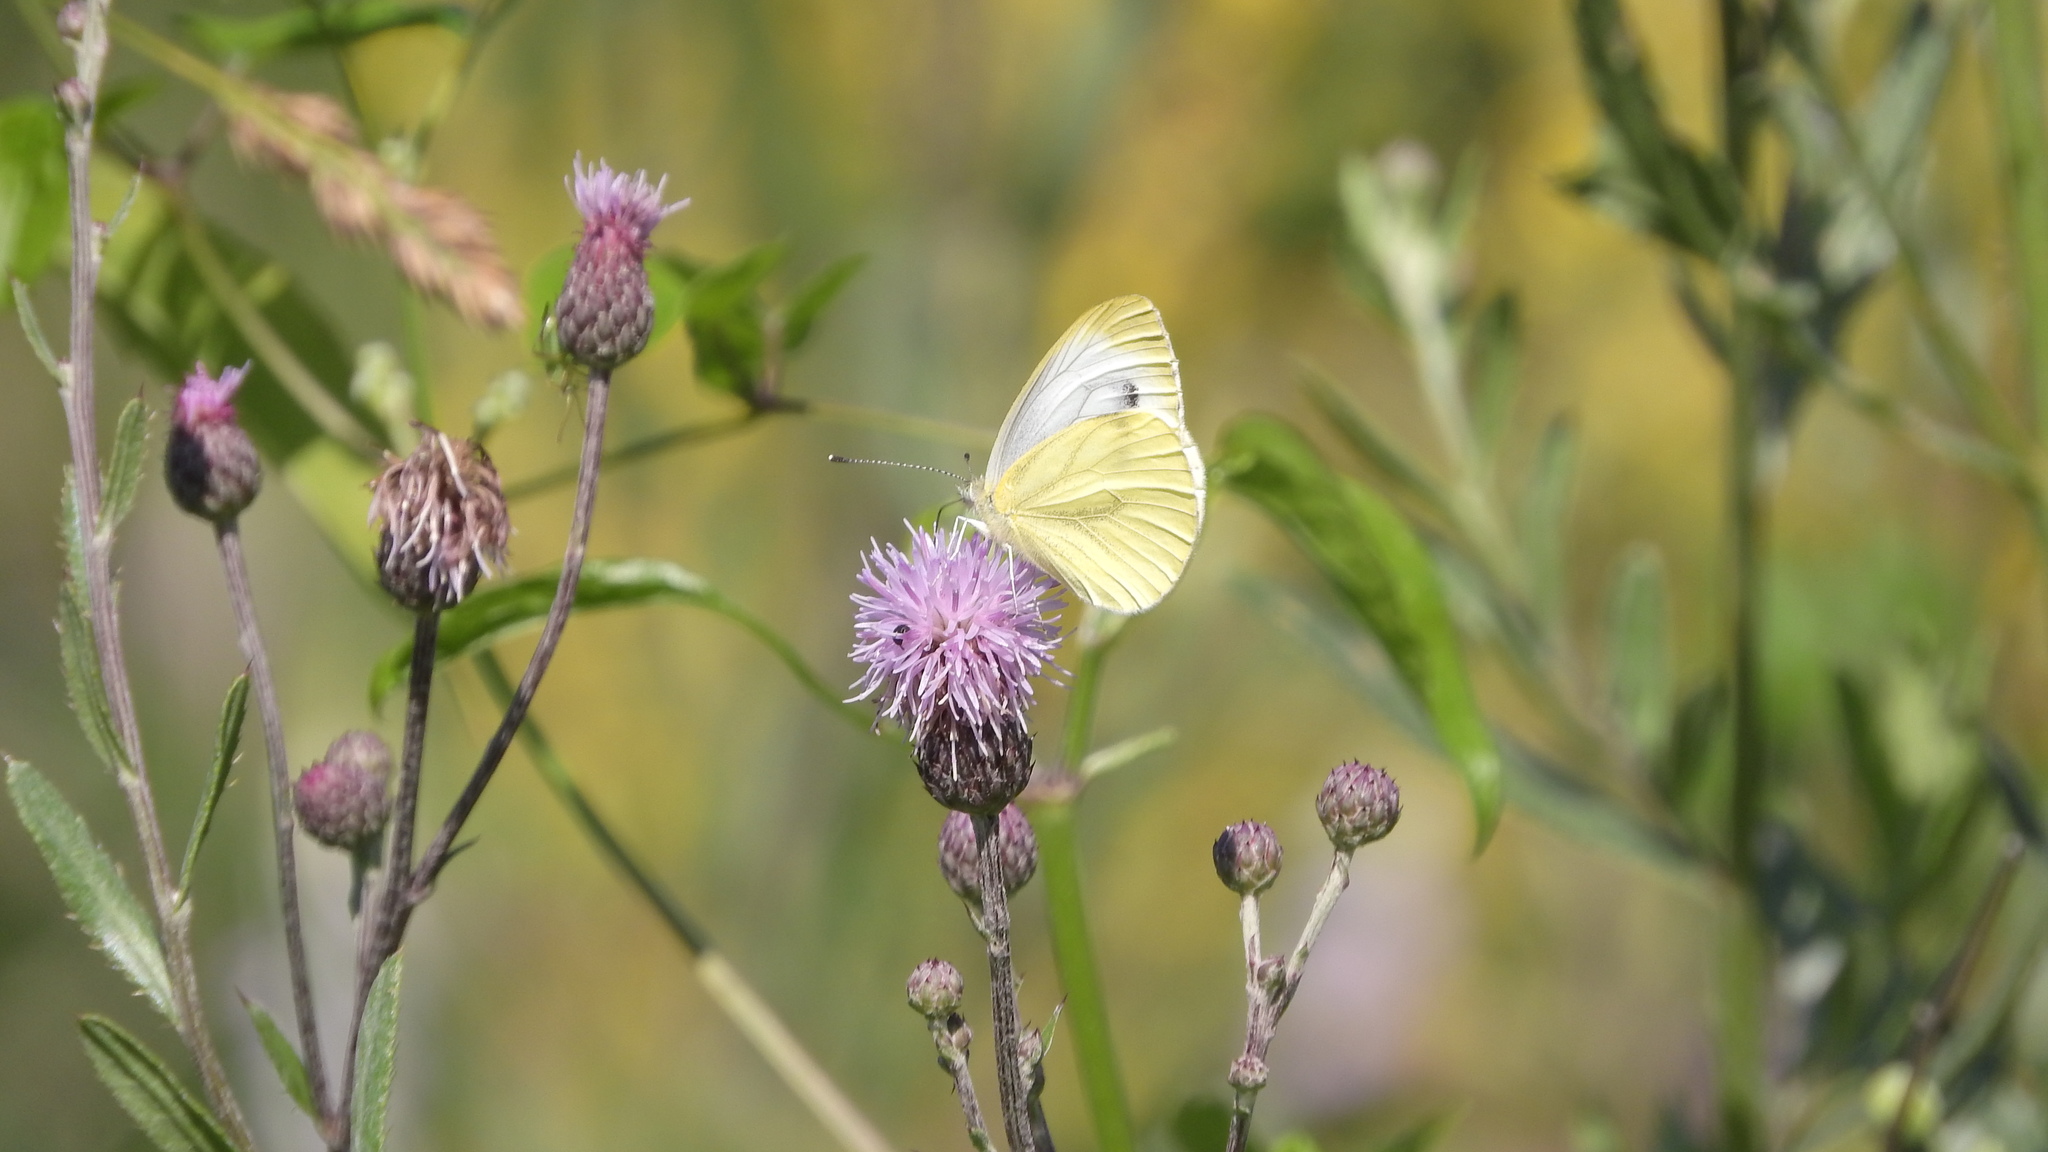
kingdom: Animalia
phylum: Arthropoda
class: Insecta
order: Lepidoptera
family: Pieridae
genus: Pieris
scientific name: Pieris napi
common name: Green-veined white
